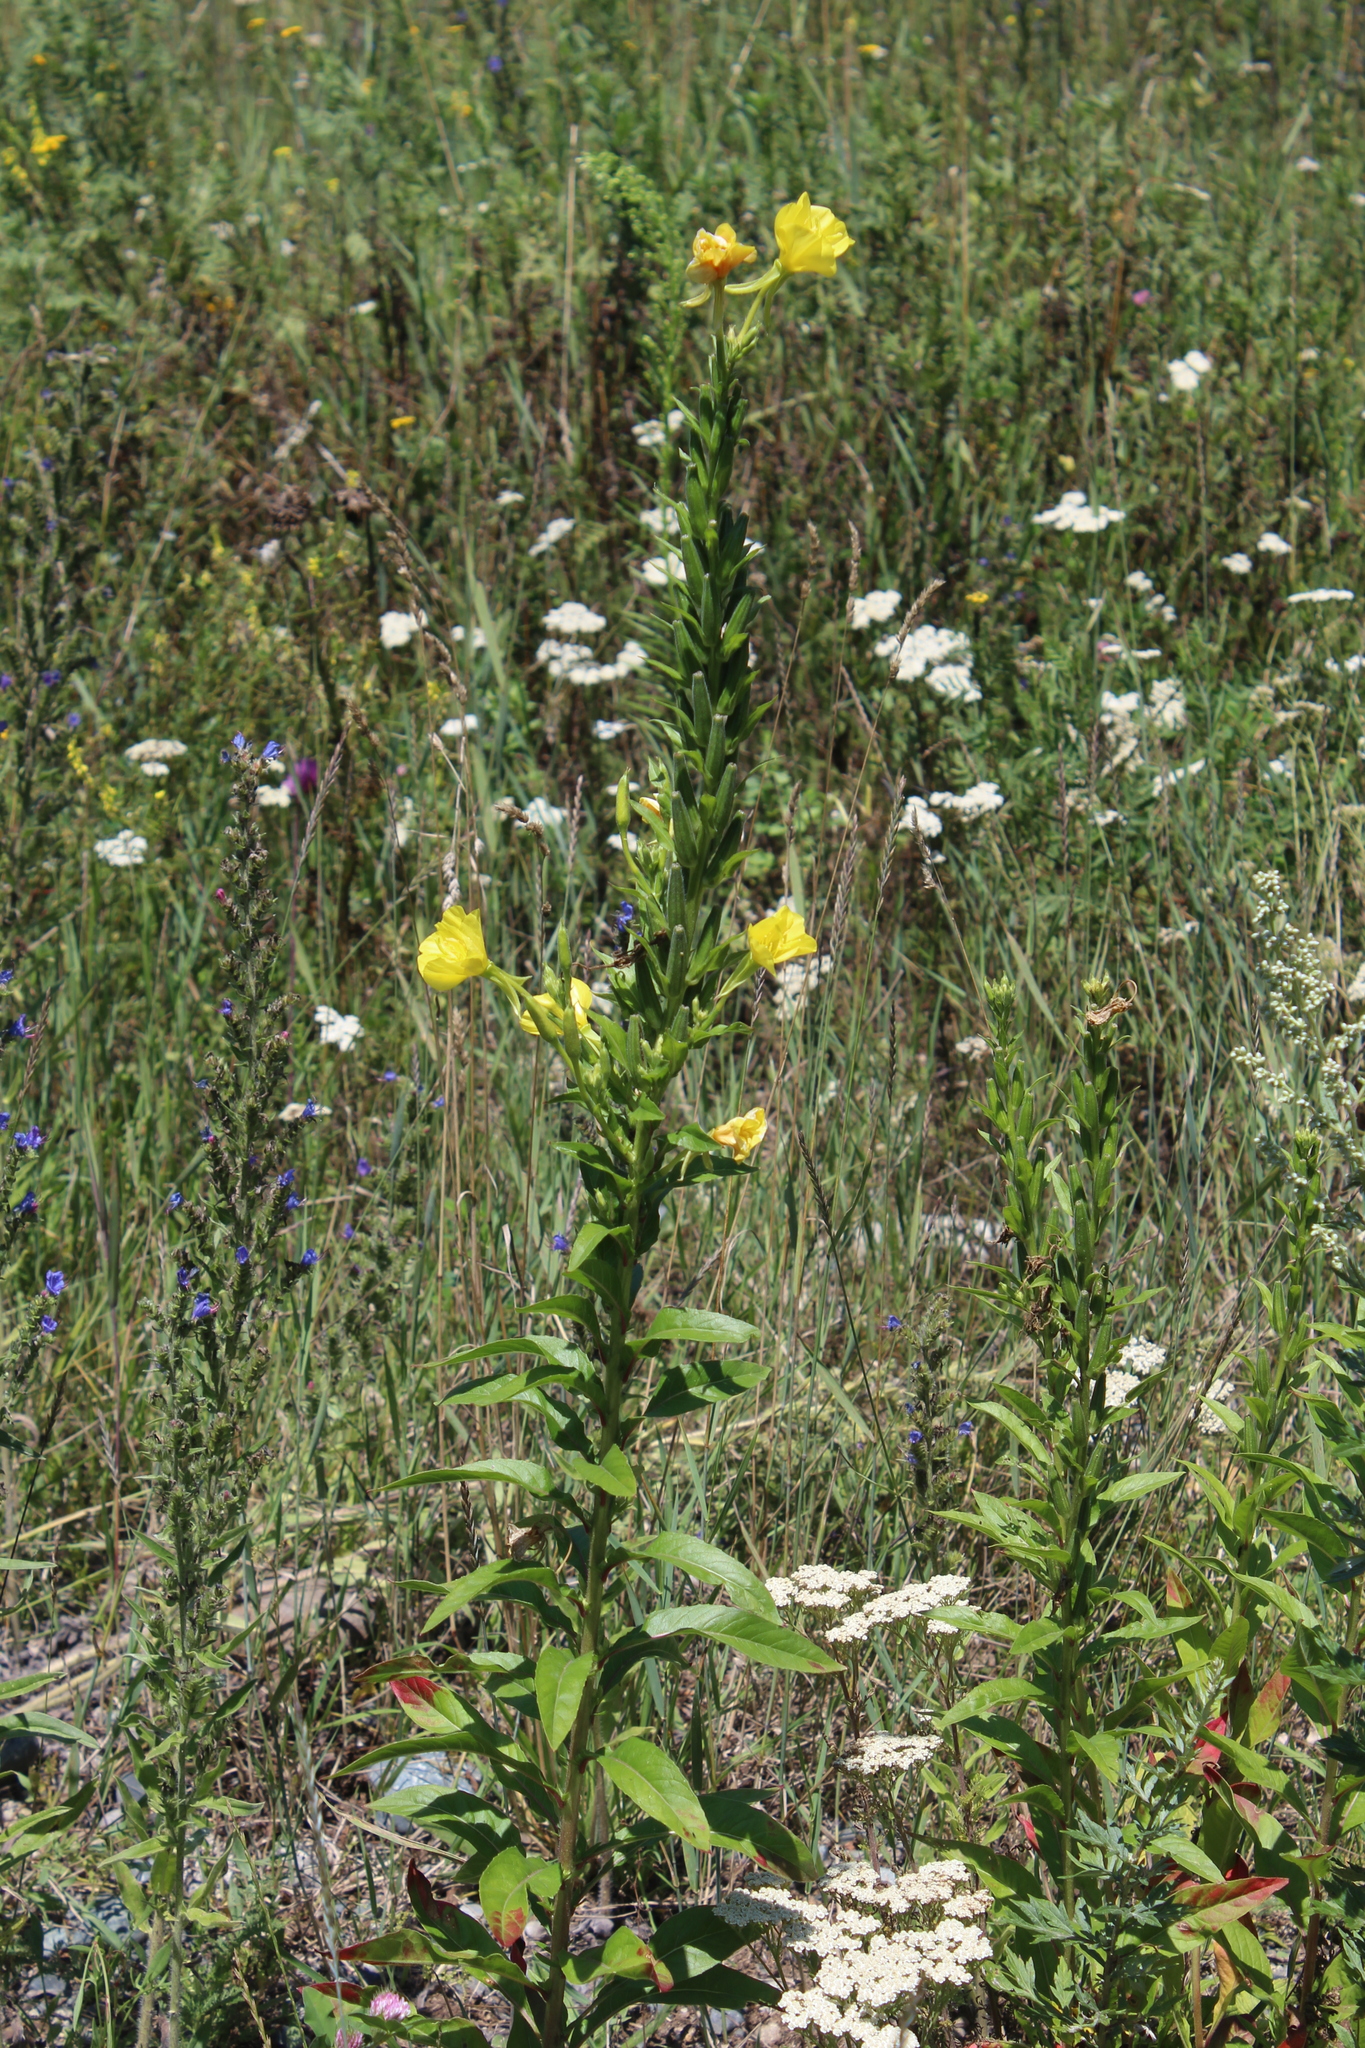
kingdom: Plantae
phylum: Tracheophyta
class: Magnoliopsida
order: Myrtales
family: Onagraceae
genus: Oenothera
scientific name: Oenothera biennis
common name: Common evening-primrose
